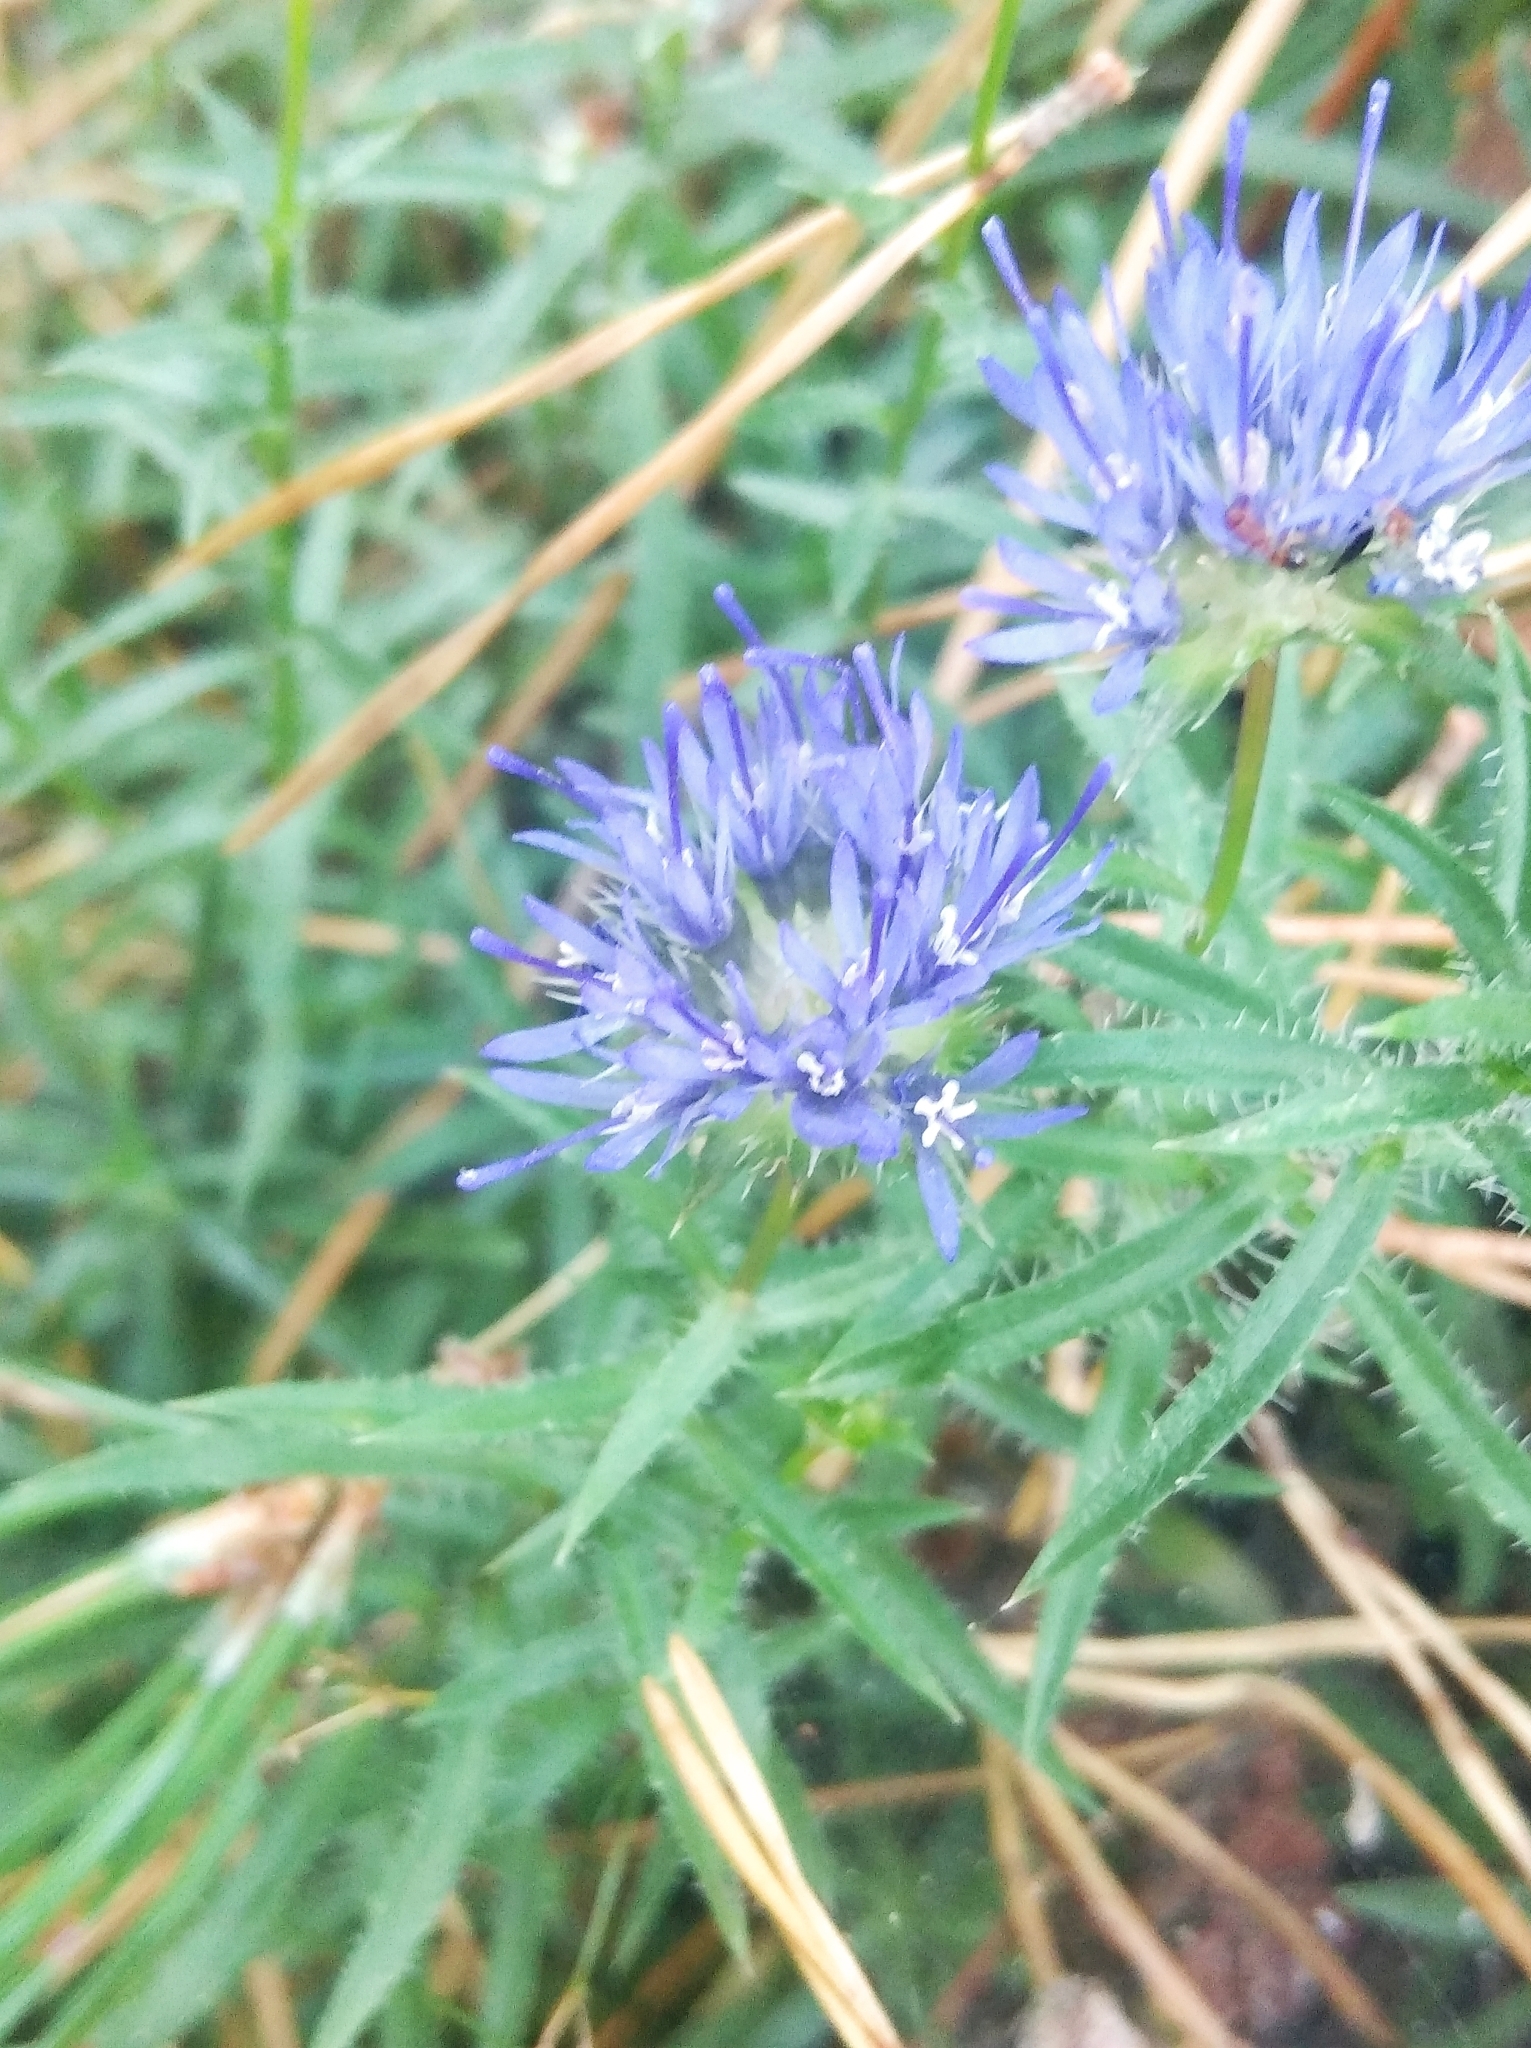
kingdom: Plantae
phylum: Tracheophyta
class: Magnoliopsida
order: Asterales
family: Campanulaceae
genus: Jasione
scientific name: Jasione montana
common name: Sheep's-bit
